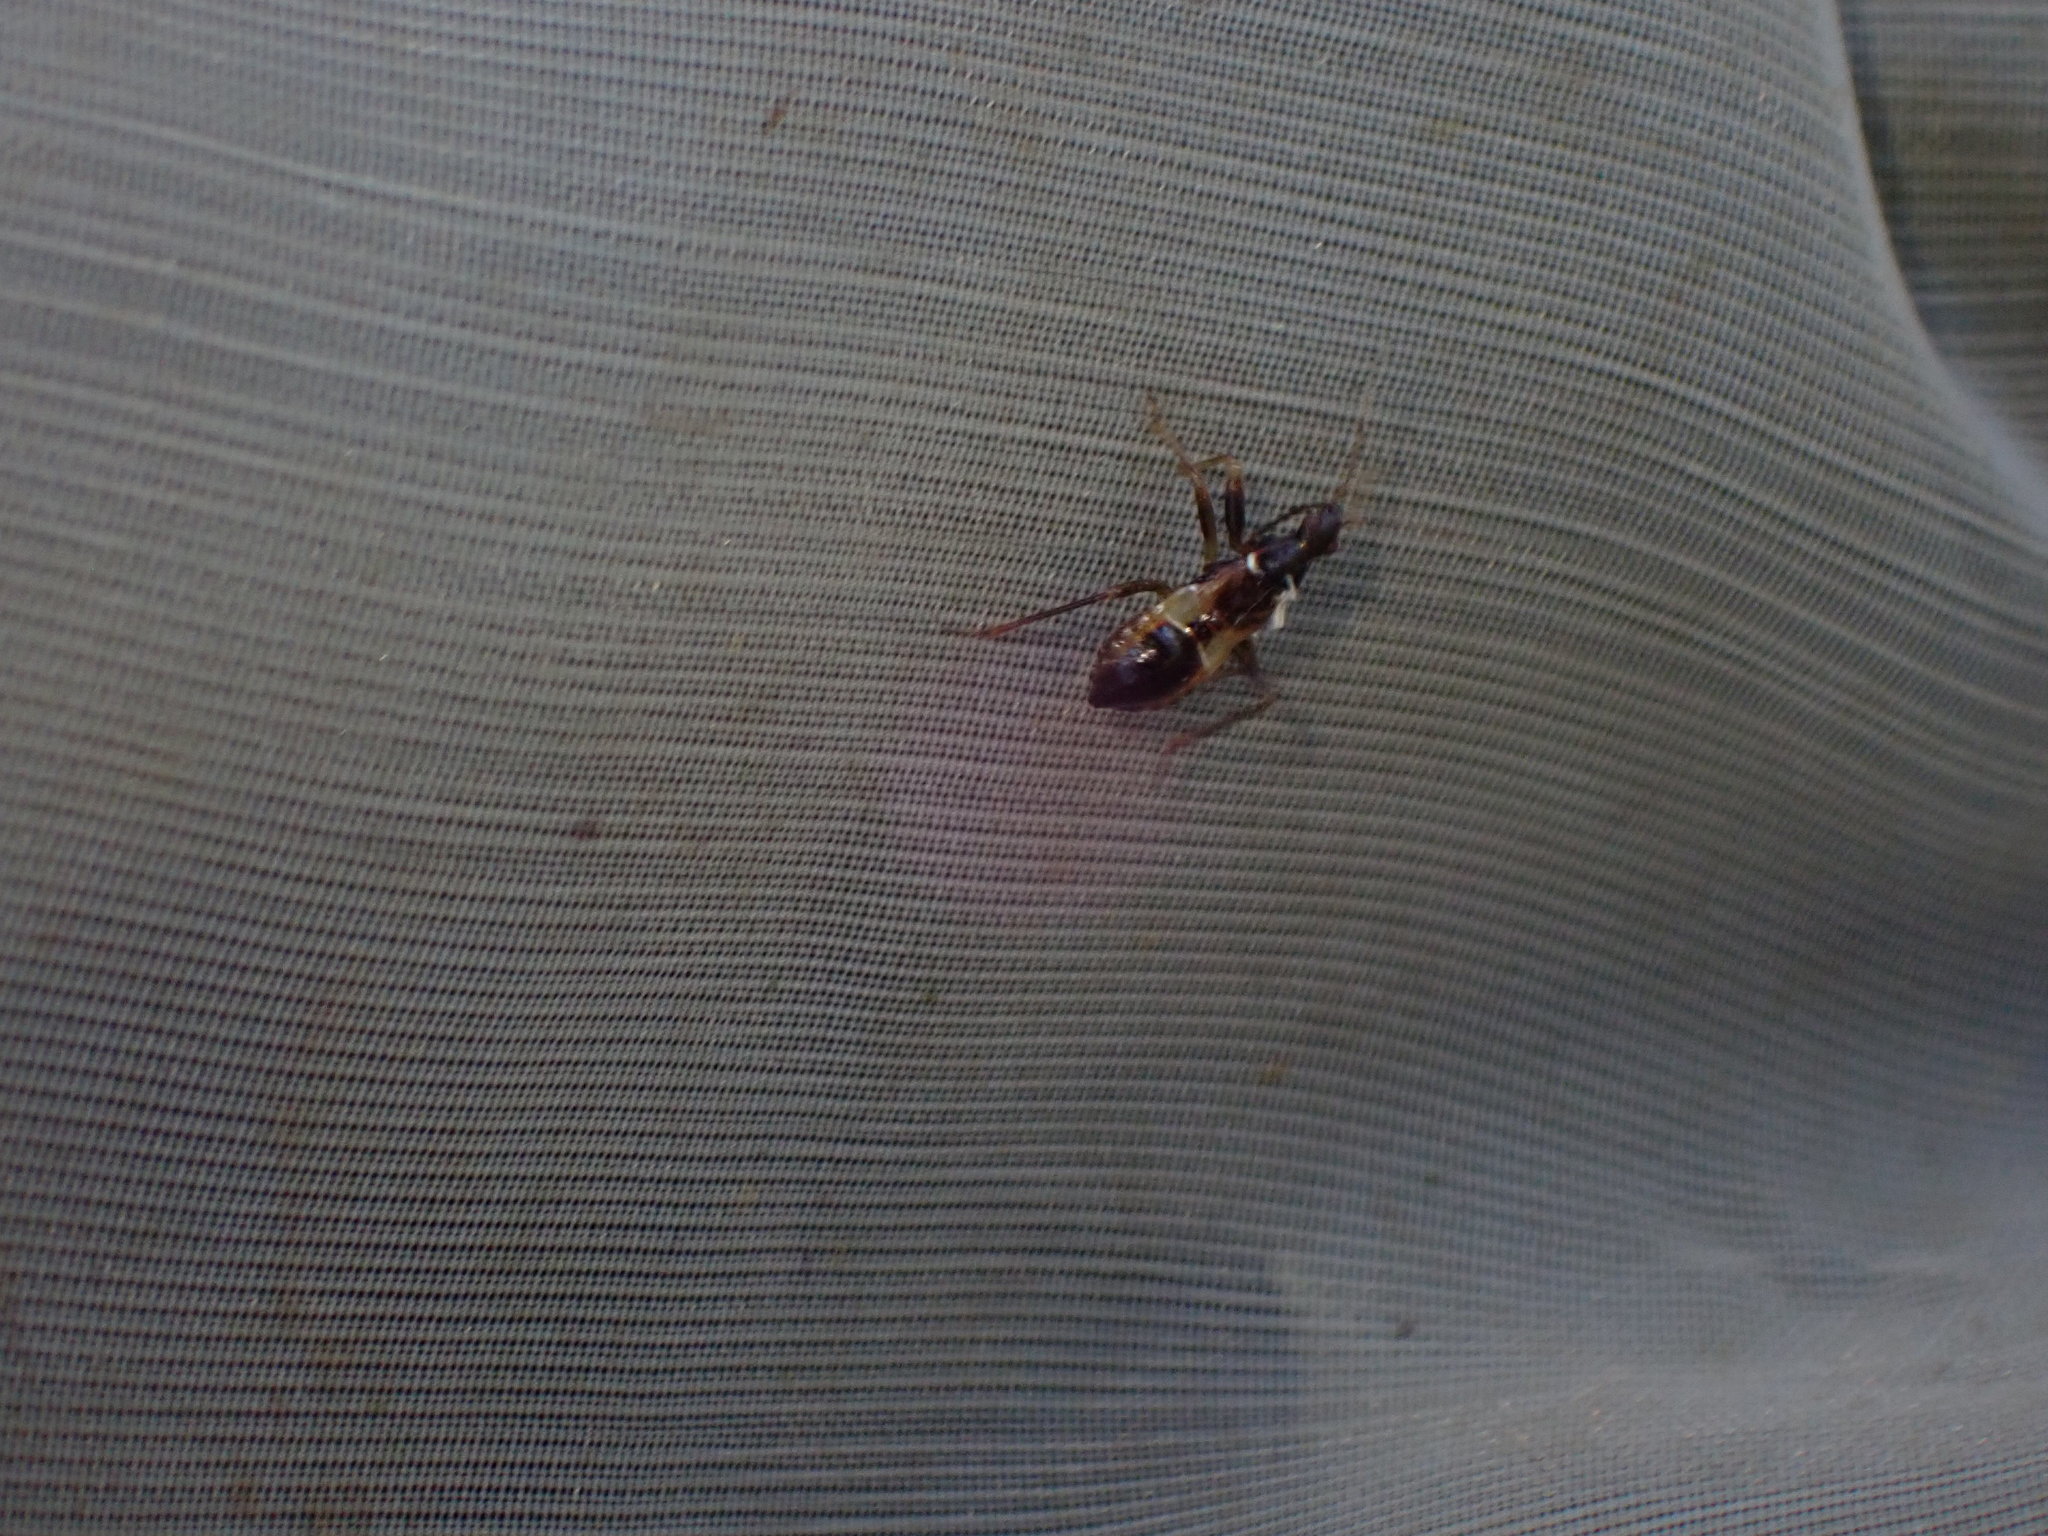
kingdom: Animalia
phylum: Arthropoda
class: Insecta
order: Hemiptera
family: Nabidae
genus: Himacerus
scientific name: Himacerus mirmicoides
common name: Ant damsel bug
